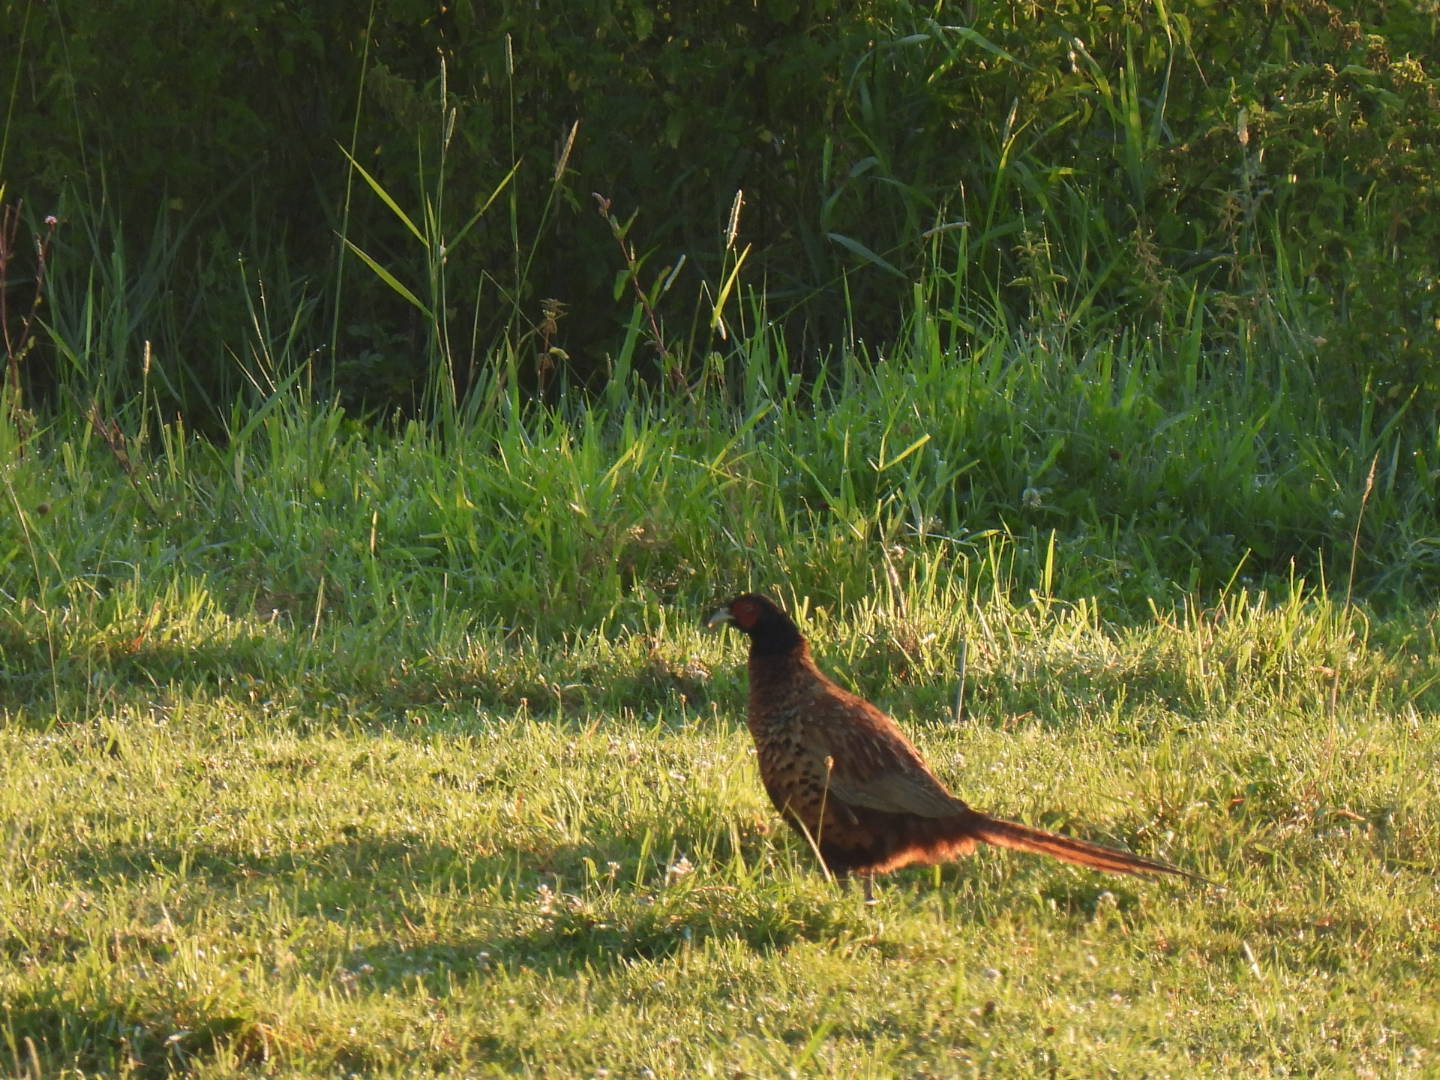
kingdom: Animalia
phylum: Chordata
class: Aves
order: Galliformes
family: Phasianidae
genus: Phasianus
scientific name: Phasianus colchicus
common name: Common pheasant
